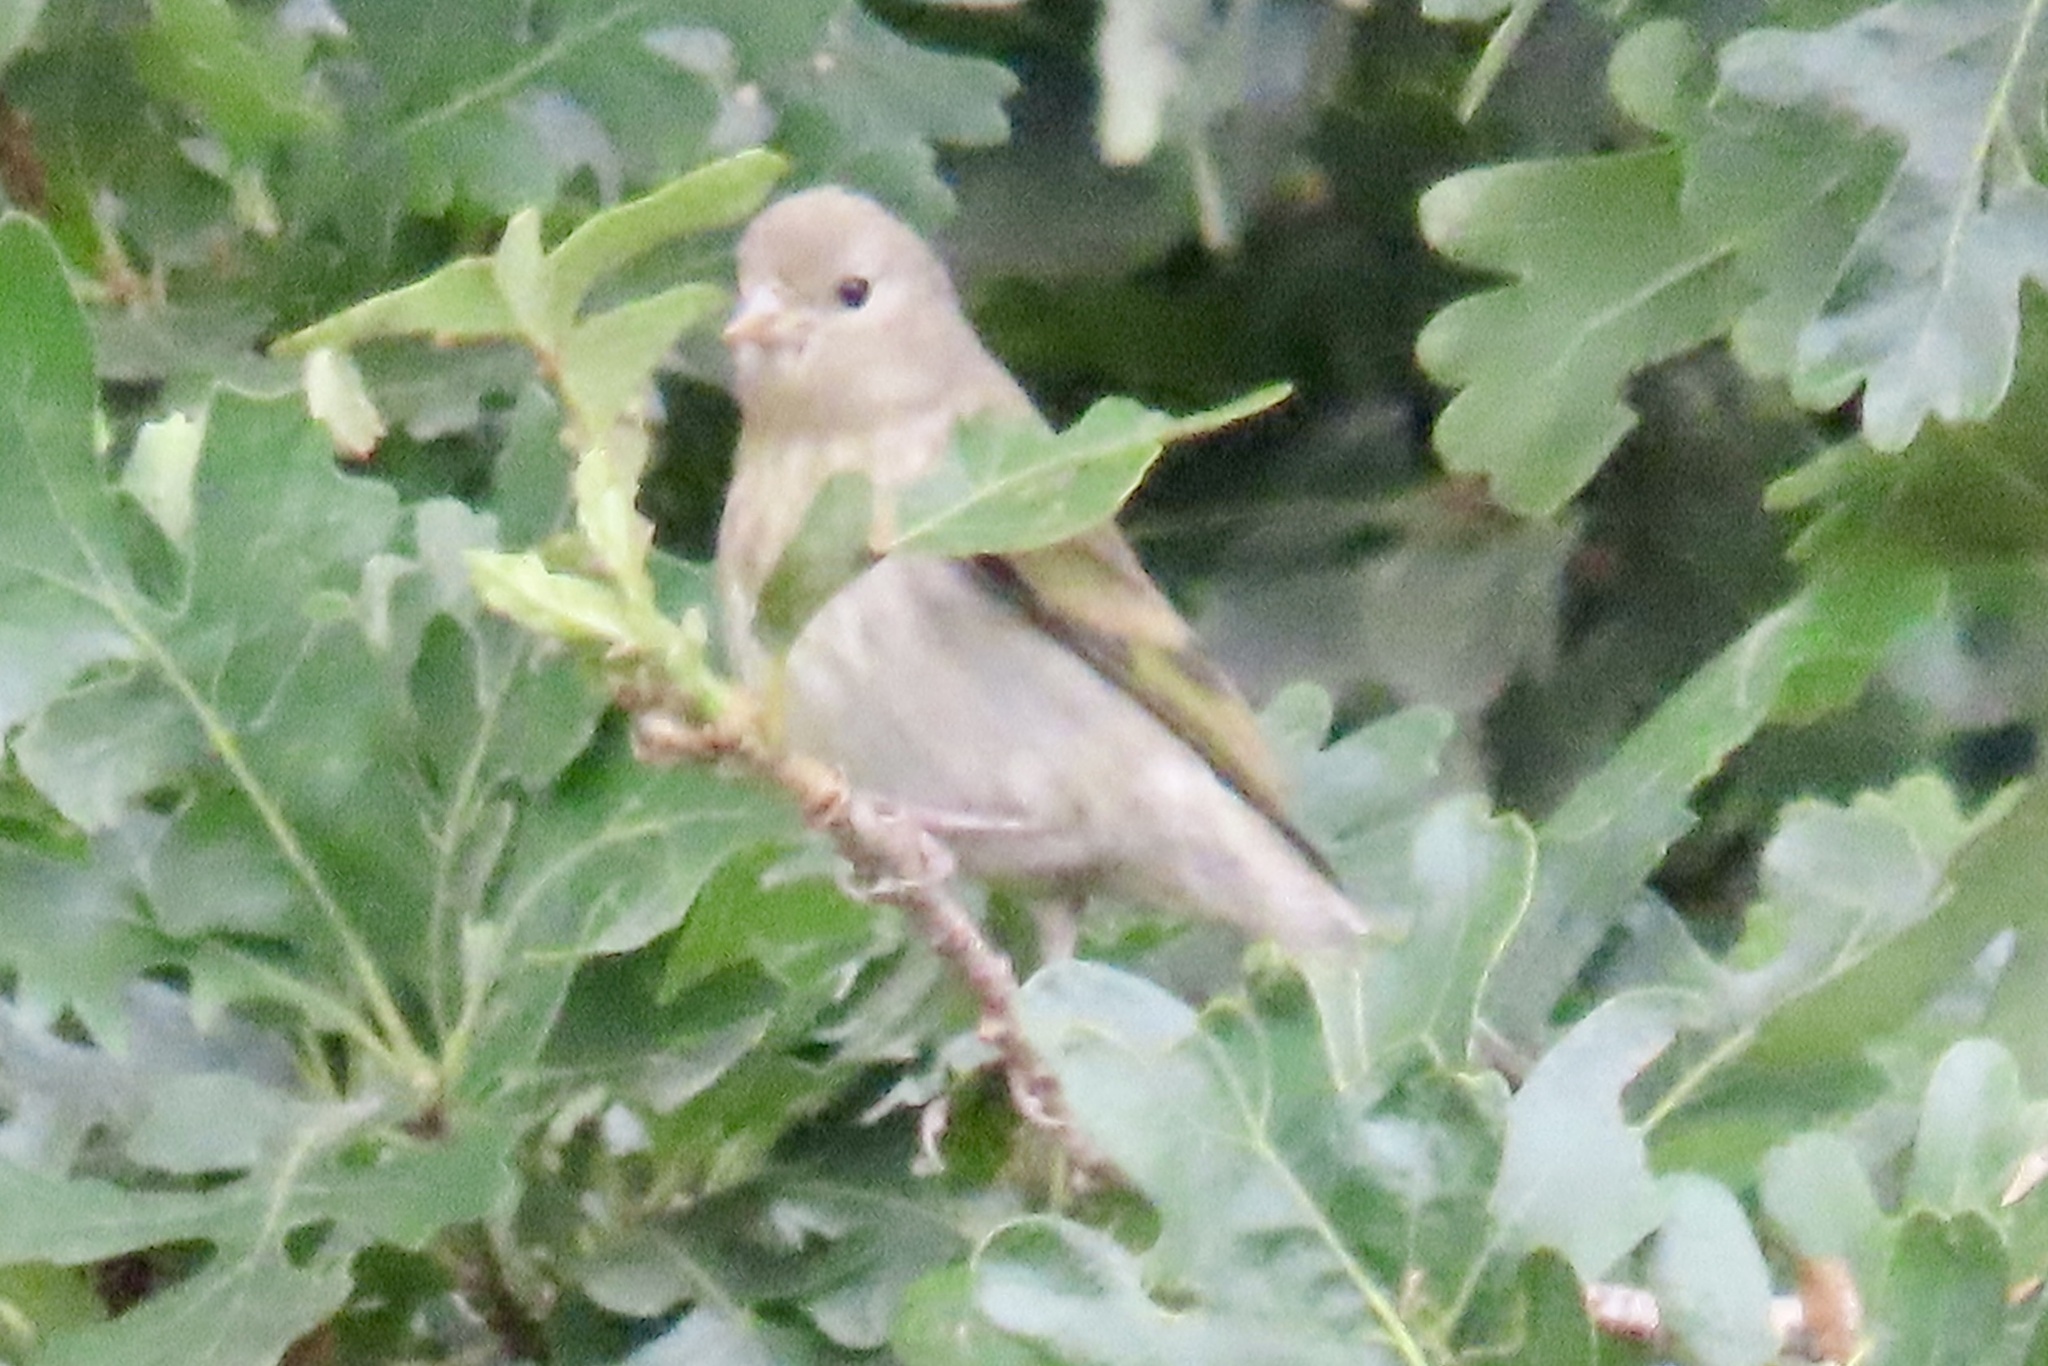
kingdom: Animalia
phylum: Chordata
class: Aves
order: Passeriformes
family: Fringillidae
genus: Spinus
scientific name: Spinus lawrencei
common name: Lawrence's goldfinch
